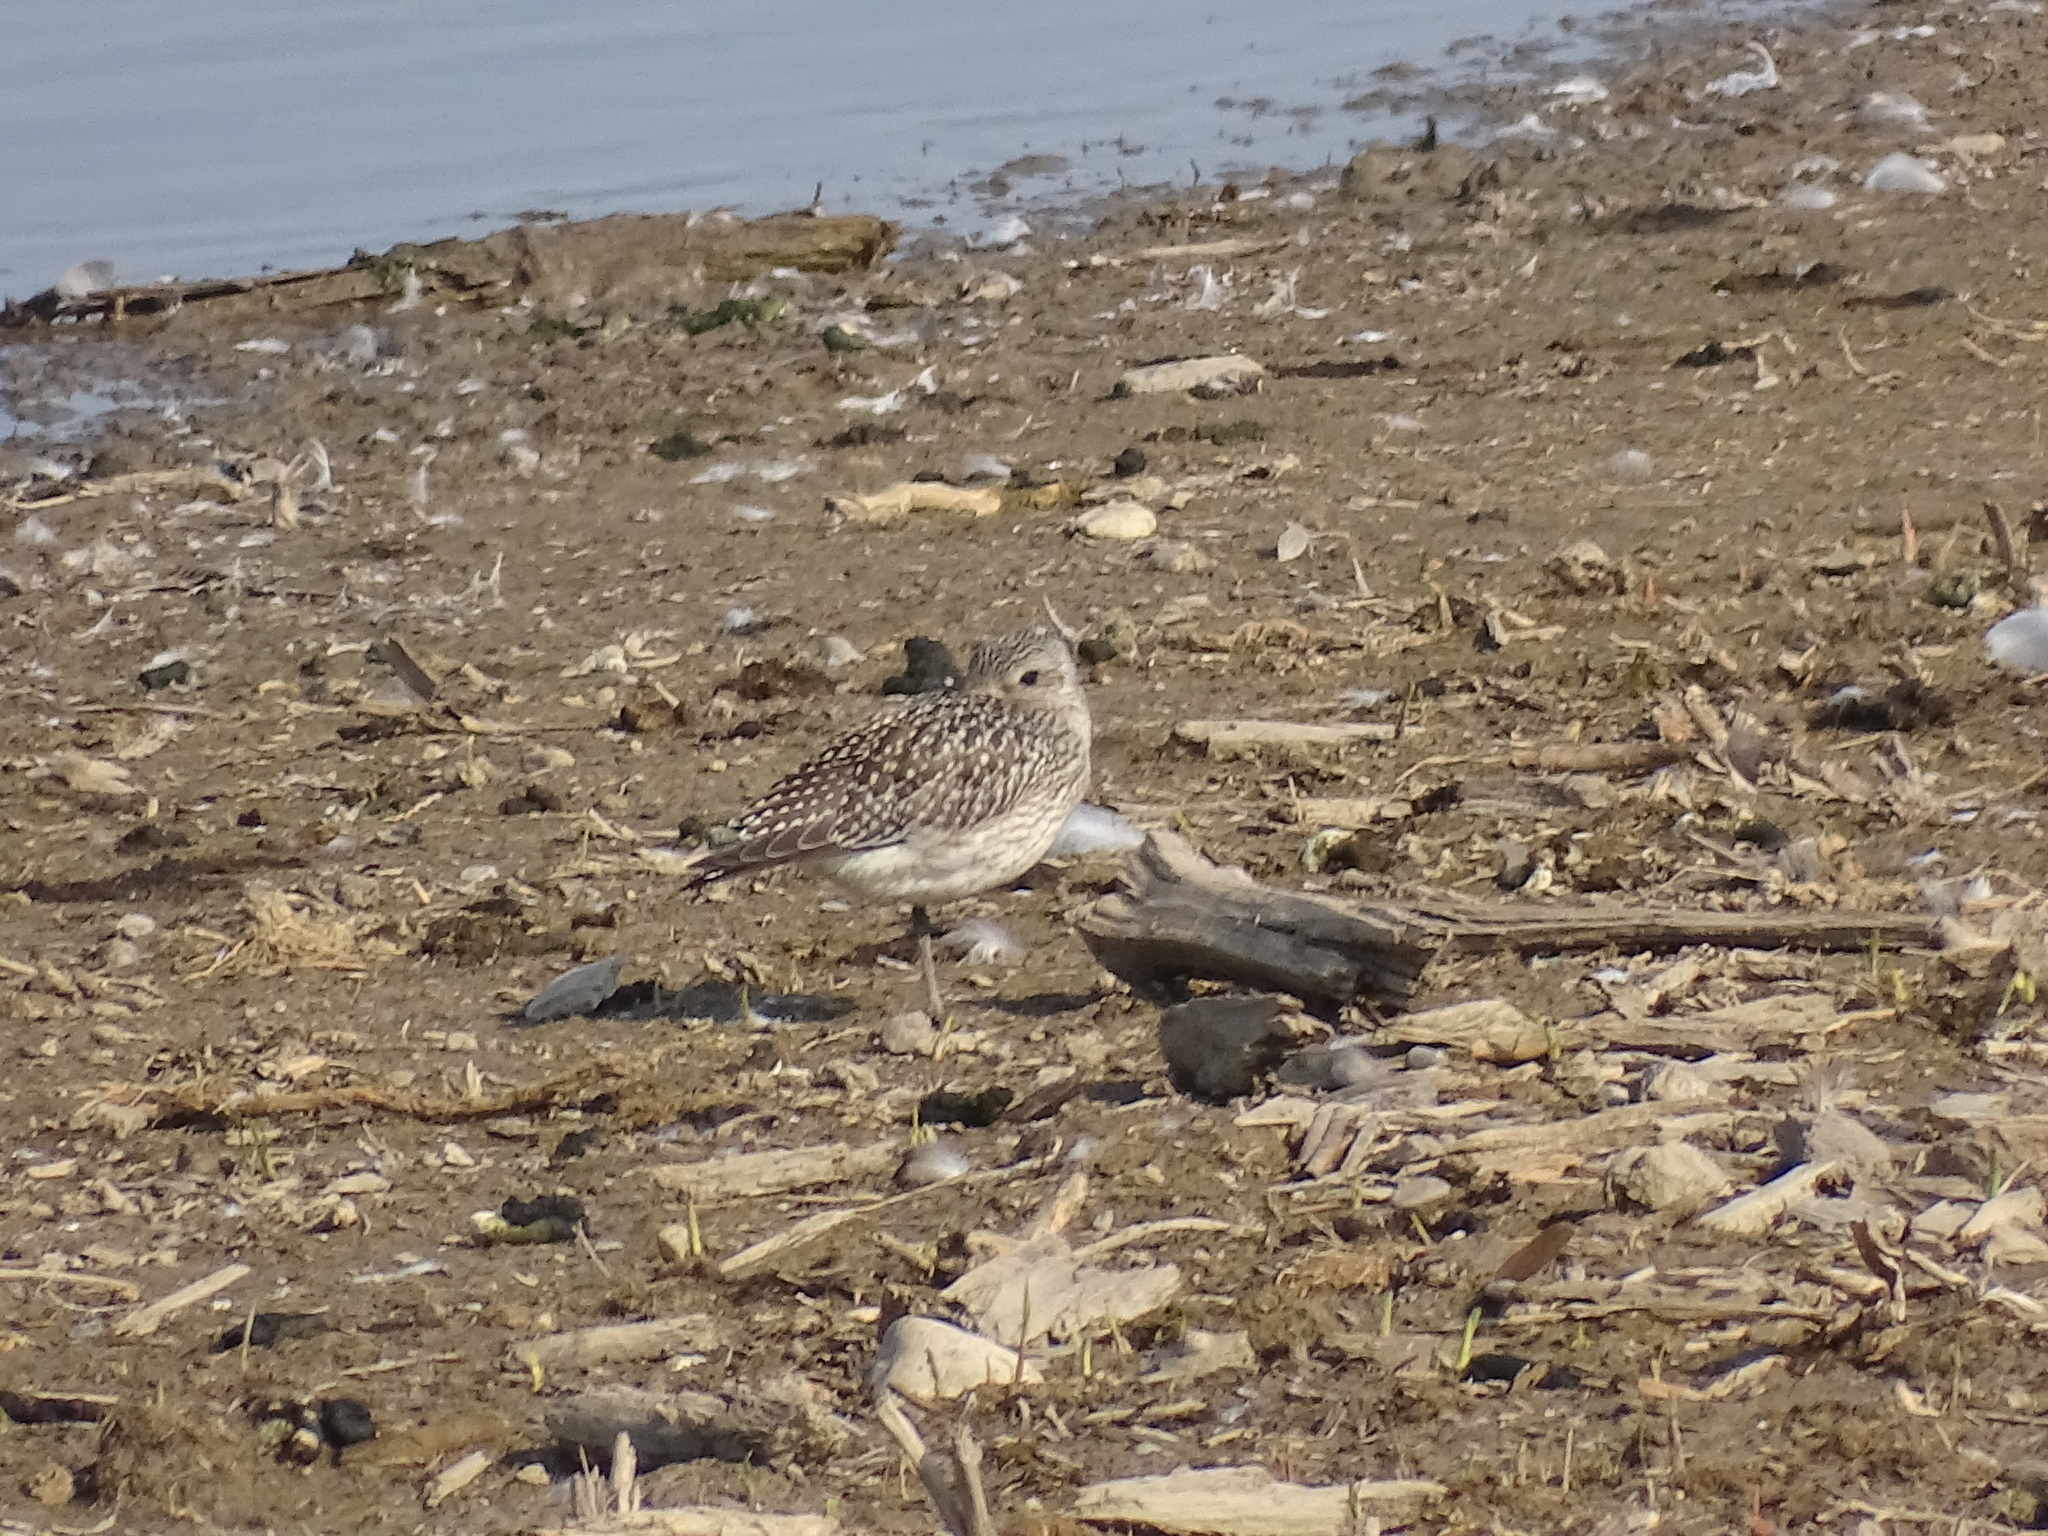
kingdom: Animalia
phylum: Chordata
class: Aves
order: Charadriiformes
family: Charadriidae
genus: Pluvialis
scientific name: Pluvialis squatarola
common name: Grey plover
